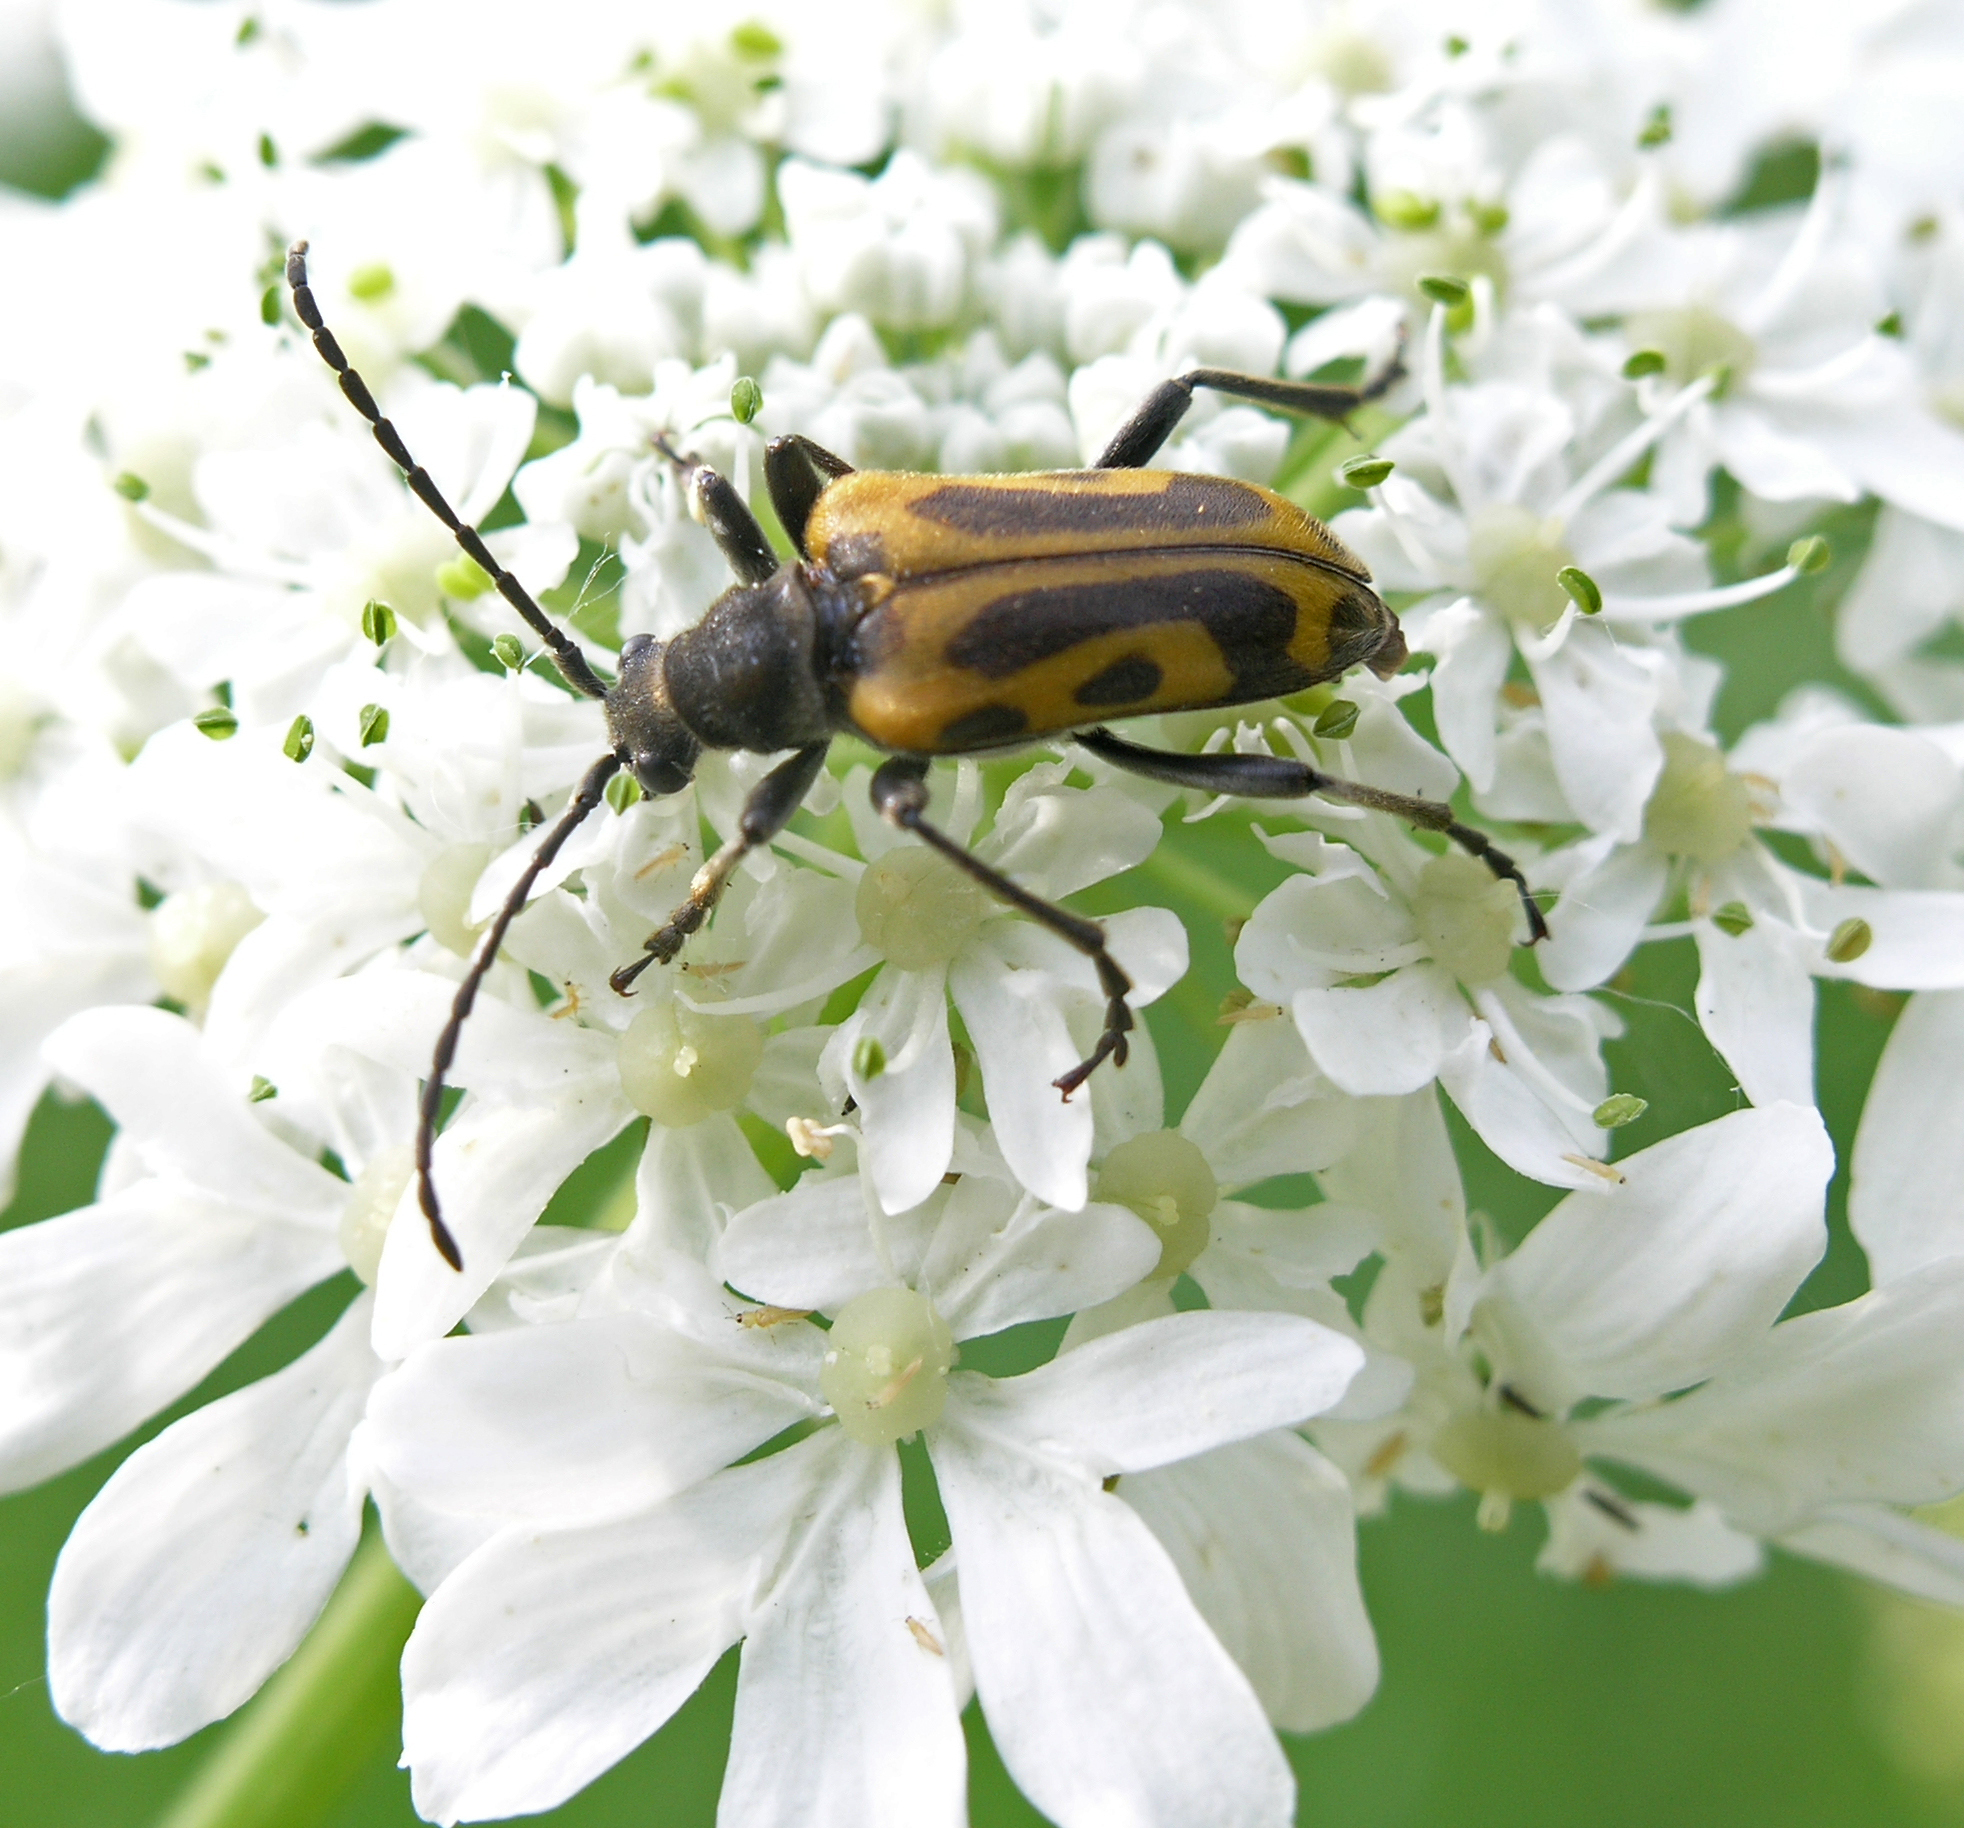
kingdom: Animalia
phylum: Arthropoda
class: Insecta
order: Coleoptera
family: Cerambycidae
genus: Brachyta
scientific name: Brachyta interrogationis
